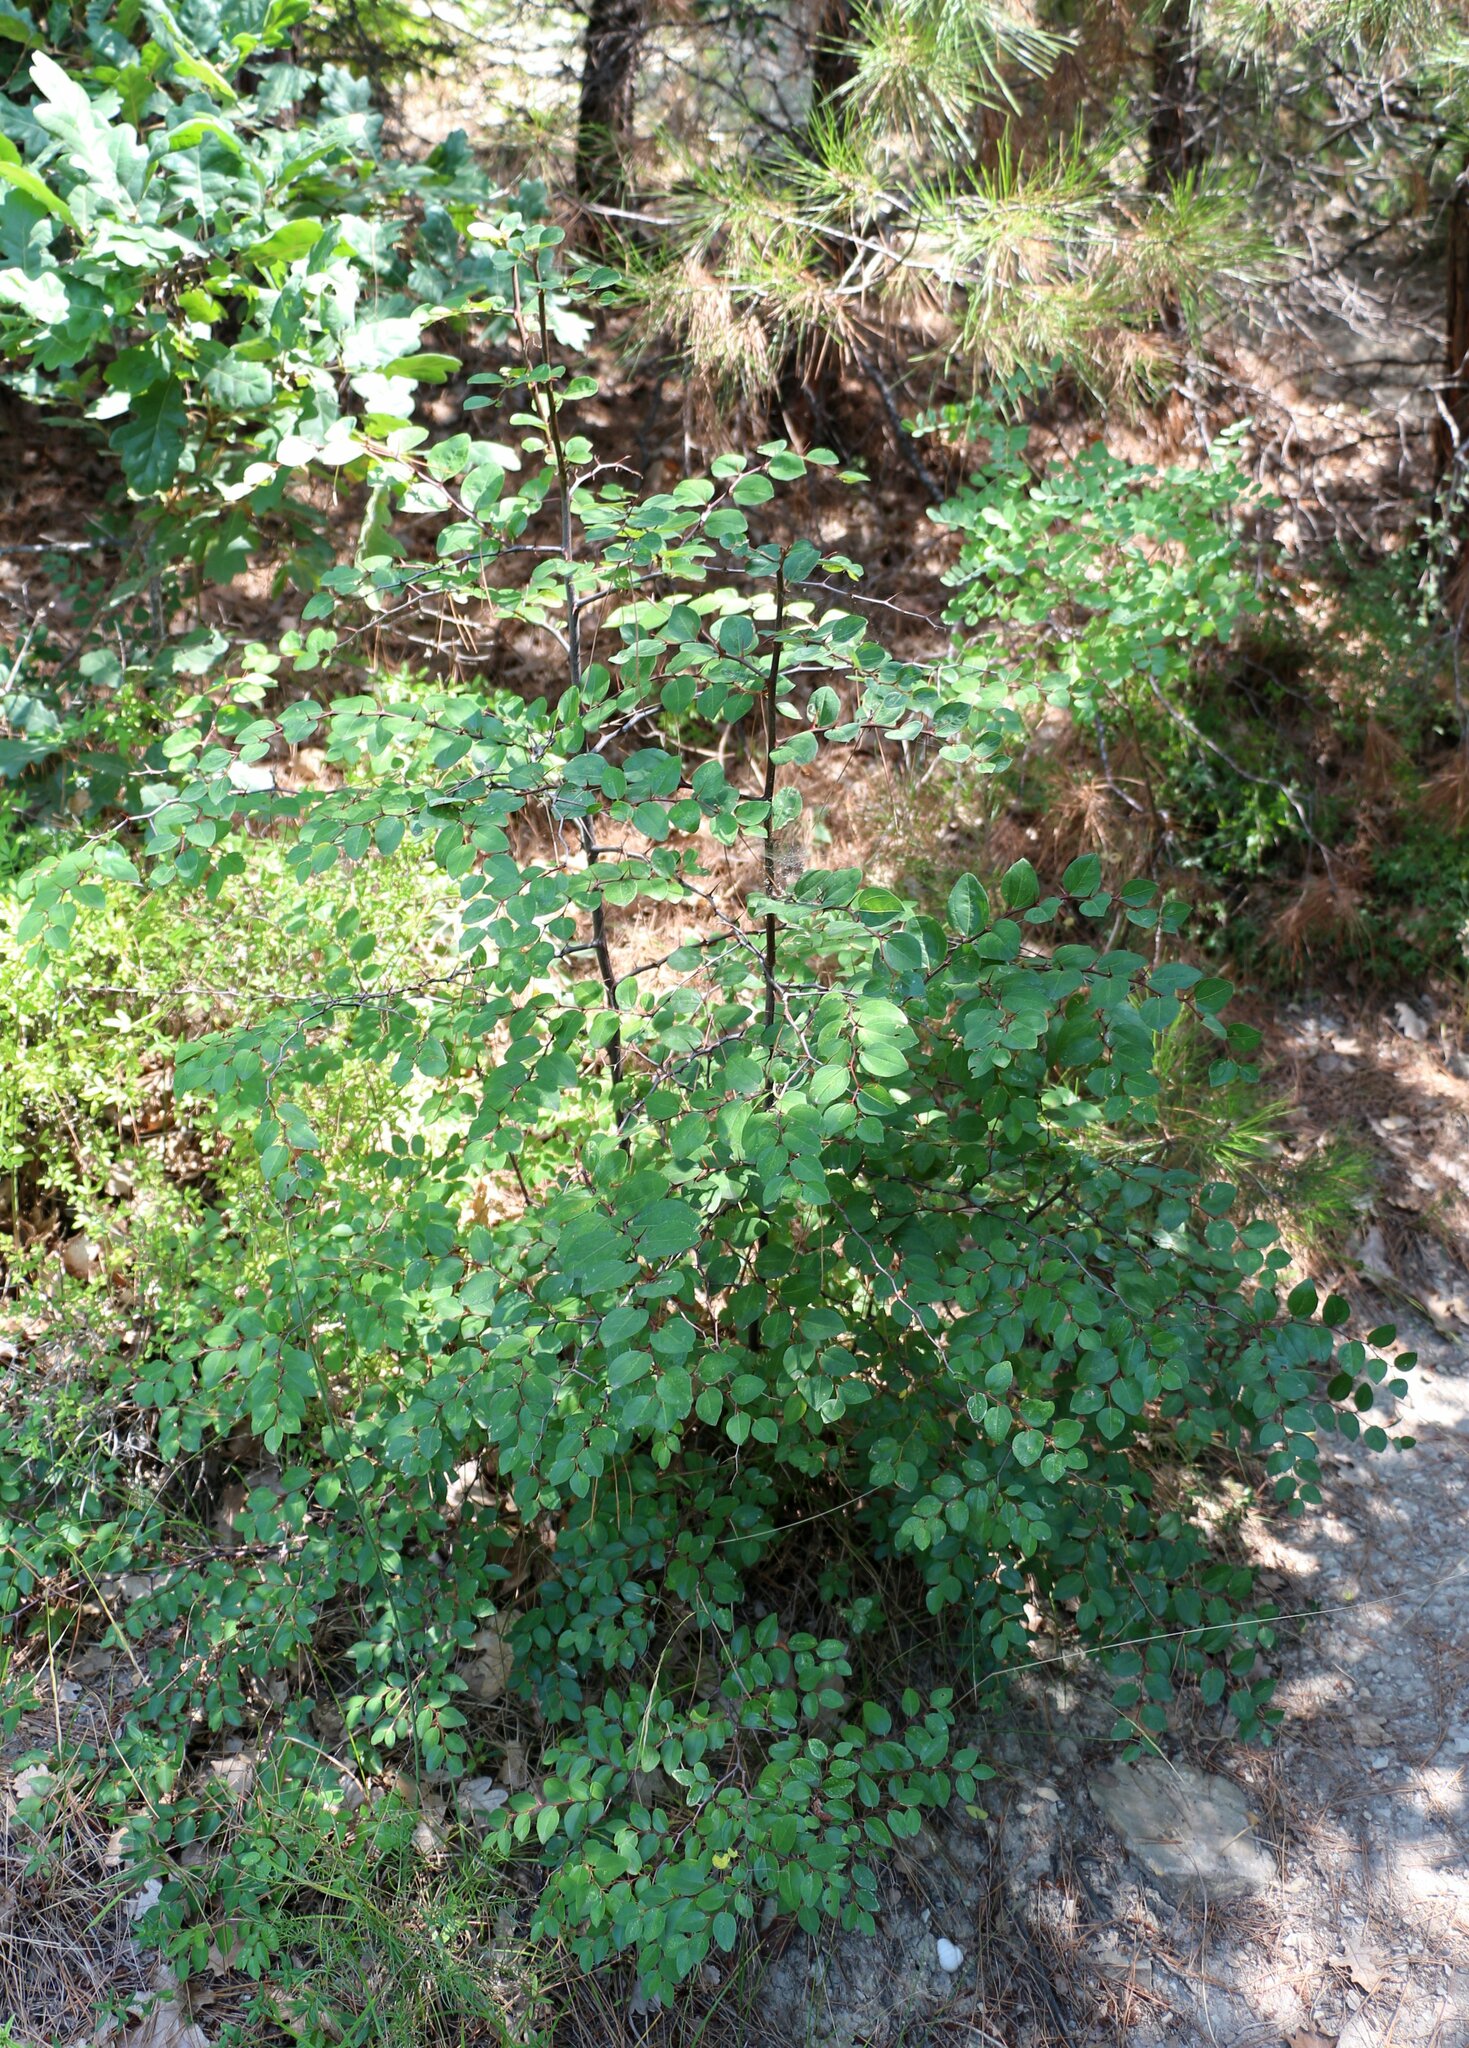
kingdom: Plantae
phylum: Tracheophyta
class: Magnoliopsida
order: Rosales
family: Rhamnaceae
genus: Paliurus
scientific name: Paliurus spina-christi
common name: Jeruselem thorn
